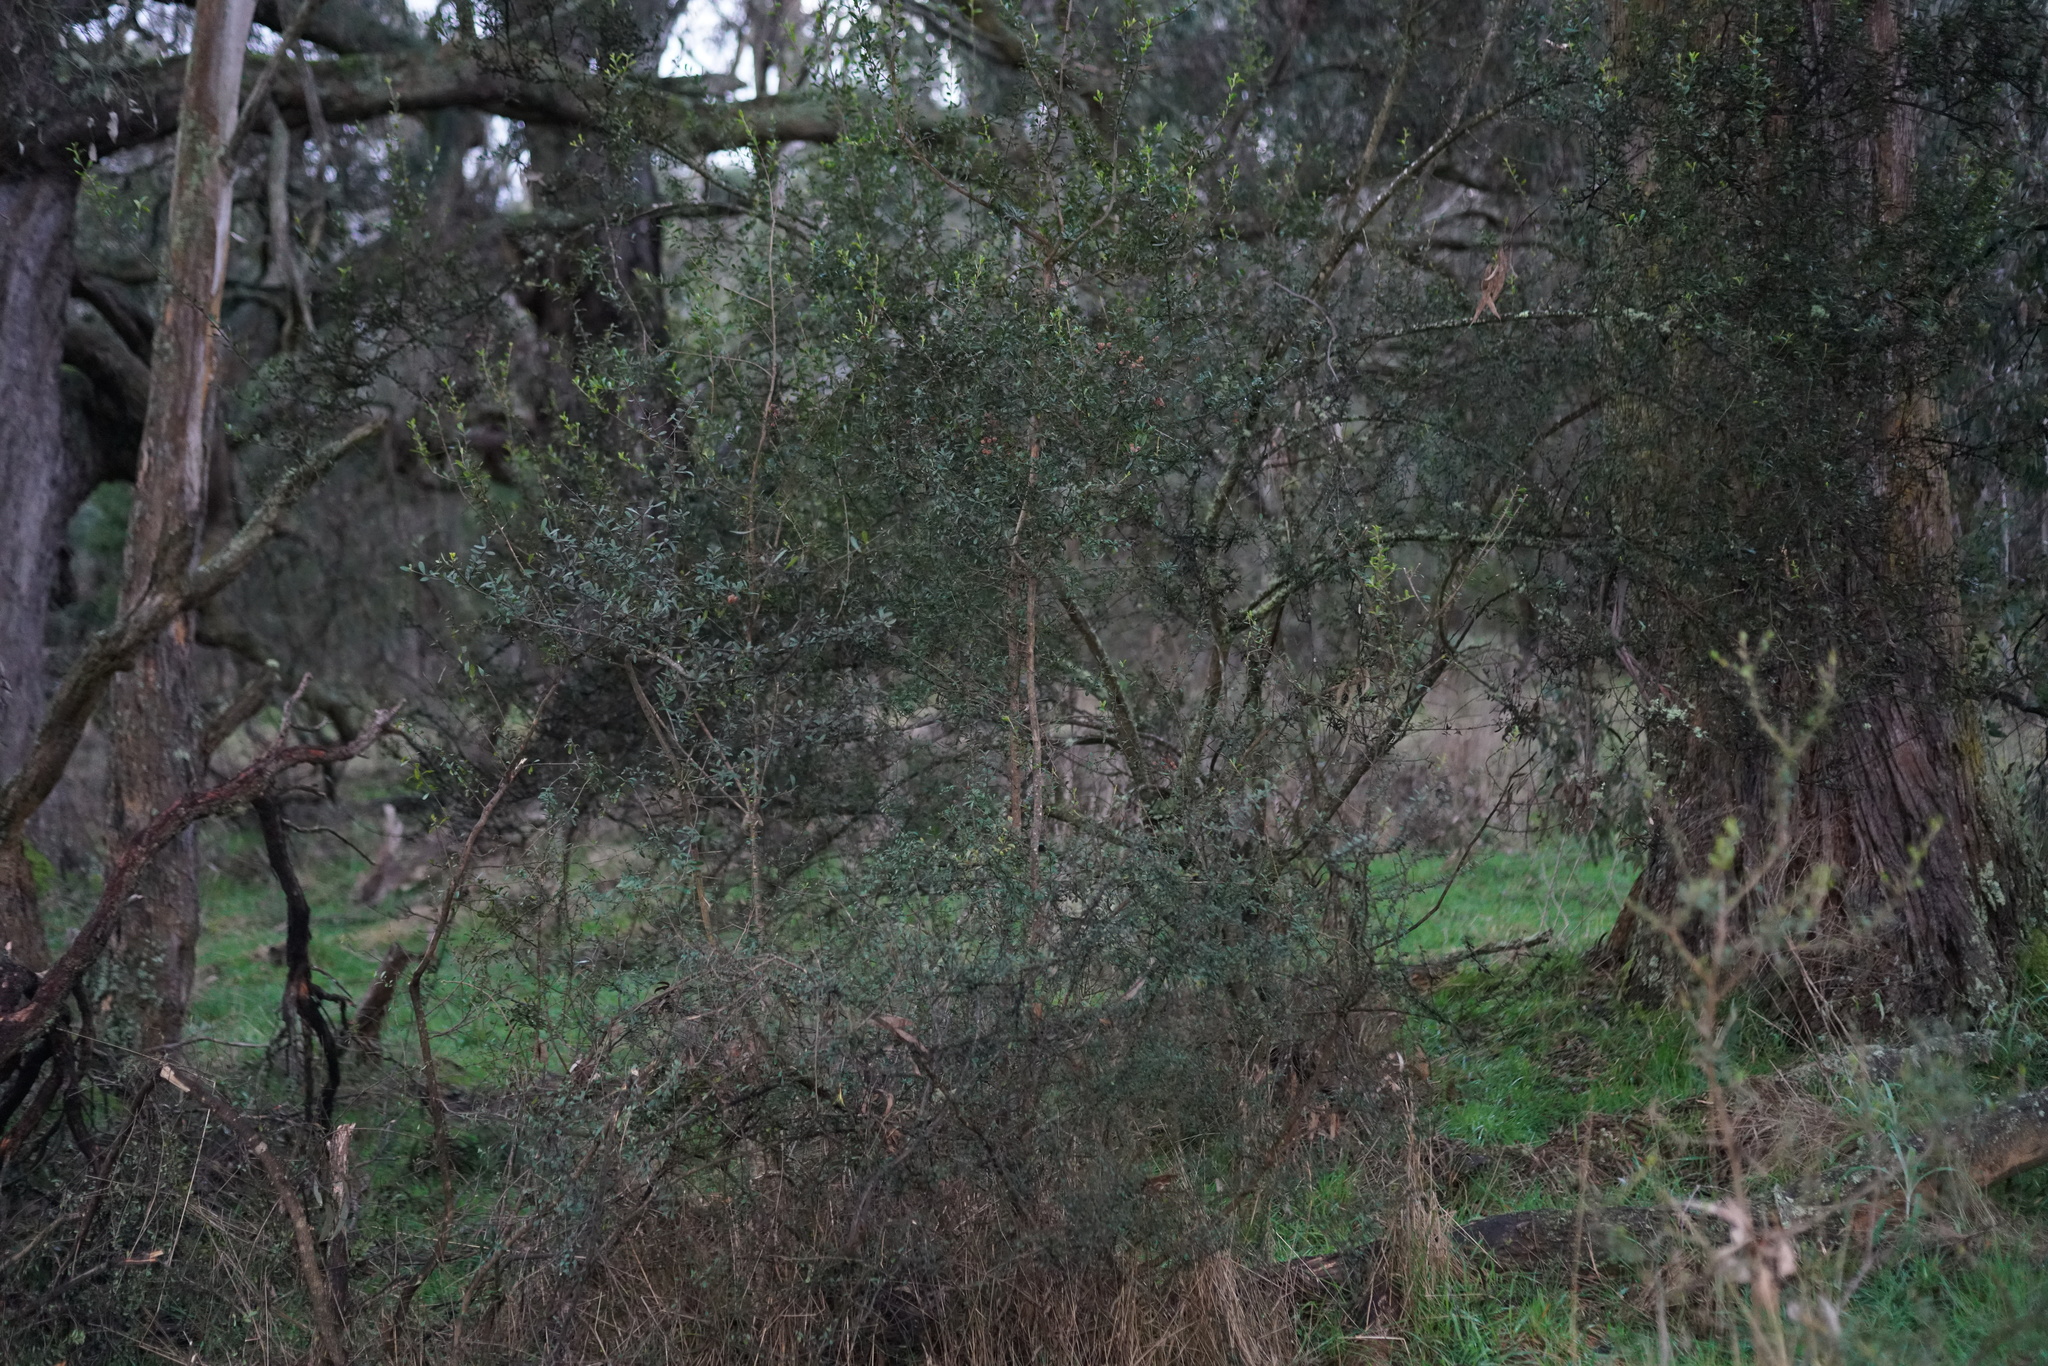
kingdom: Plantae
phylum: Tracheophyta
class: Magnoliopsida
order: Apiales
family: Pittosporaceae
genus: Bursaria
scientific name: Bursaria spinosa
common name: Australian blackthorn
